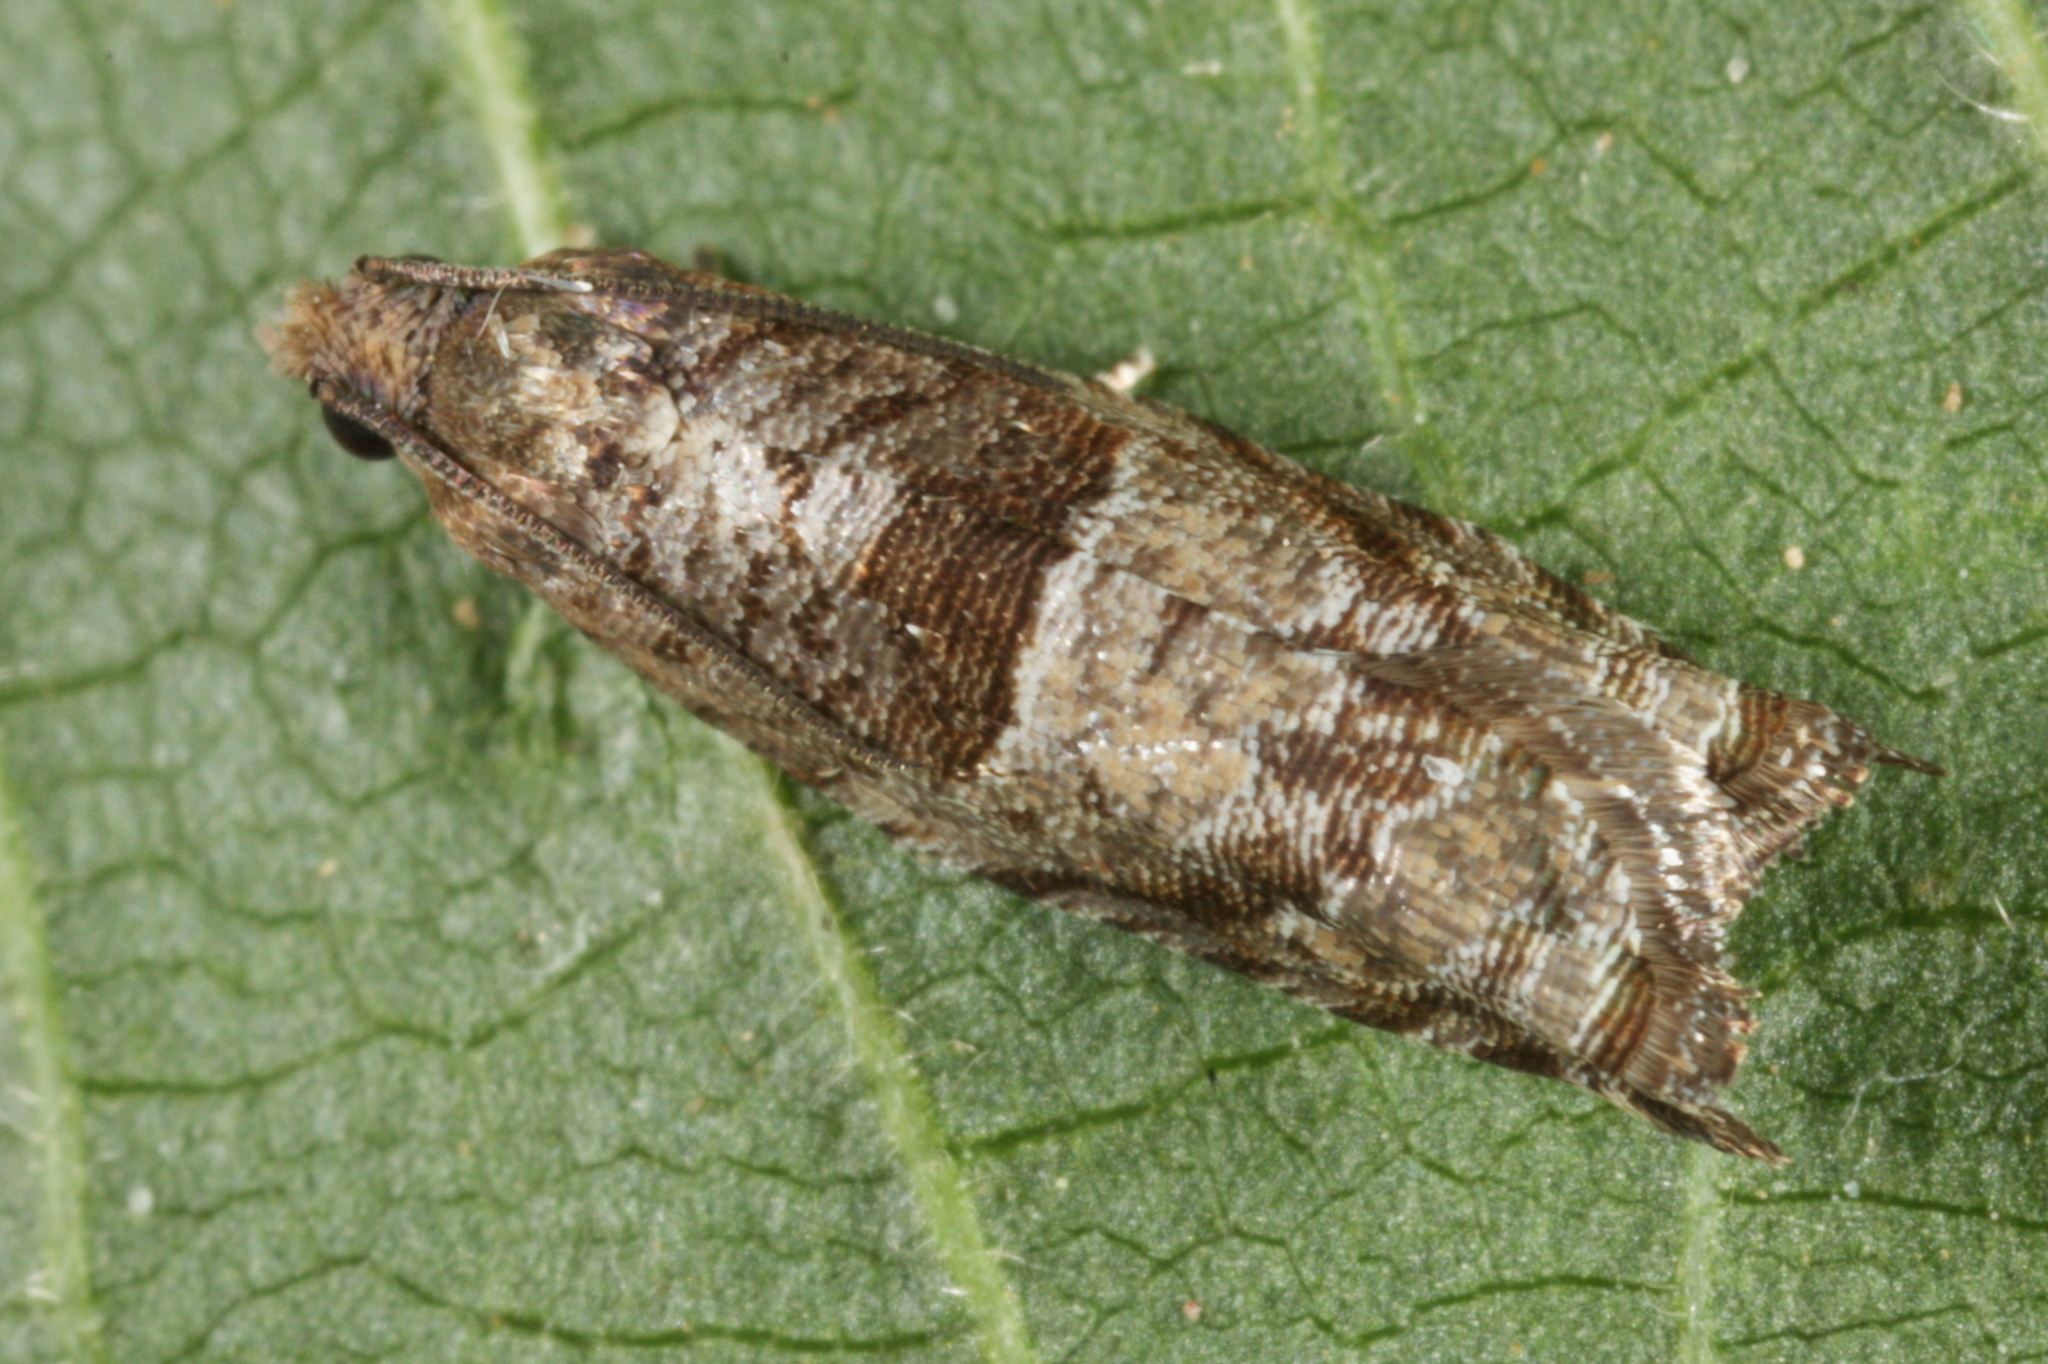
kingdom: Animalia
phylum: Arthropoda
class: Insecta
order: Lepidoptera
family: Tortricidae
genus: Rhopobota
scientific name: Rhopobota naevana
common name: Blackheaded fireworm, holly tortrix
